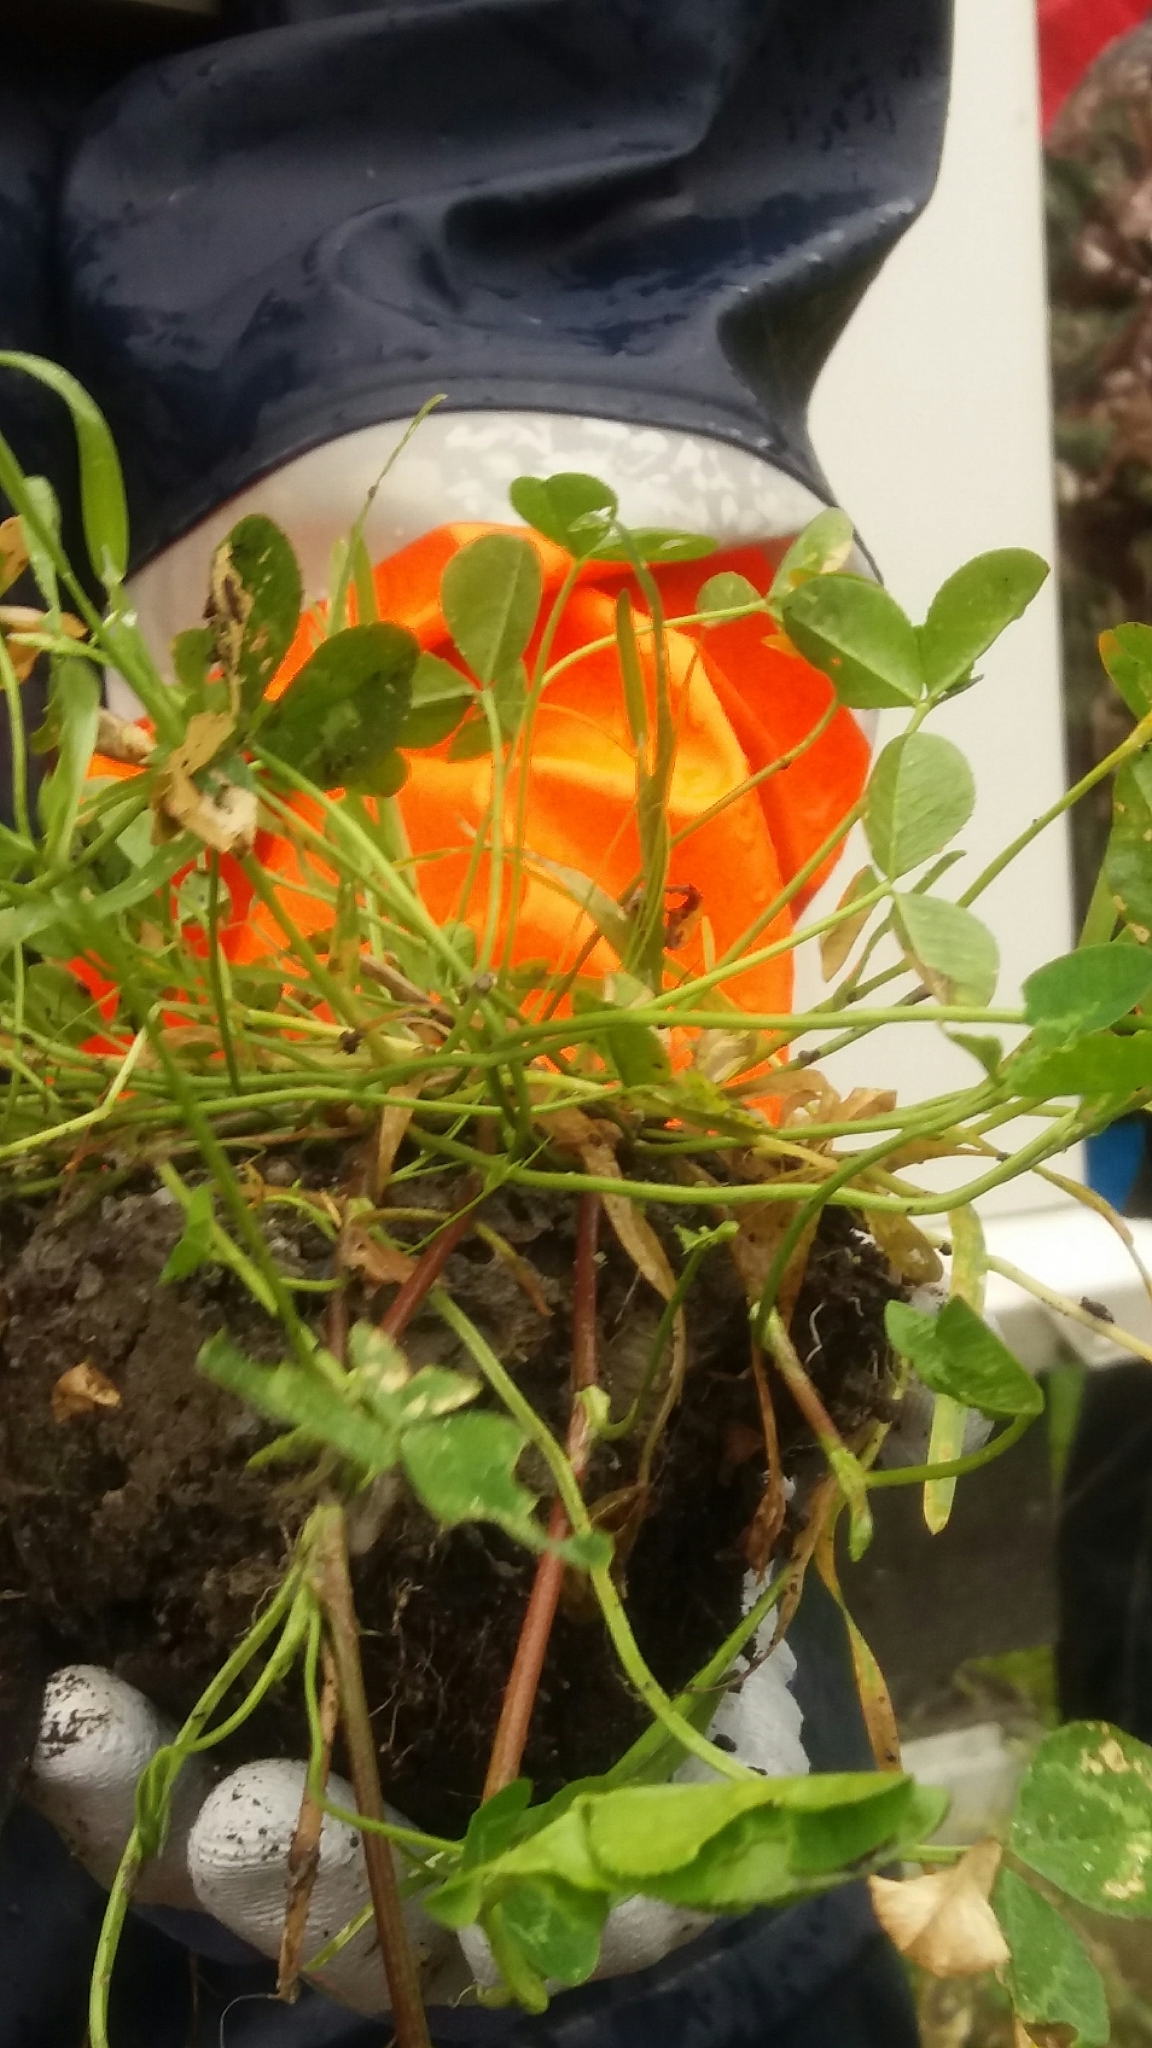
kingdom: Plantae
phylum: Tracheophyta
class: Magnoliopsida
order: Fabales
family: Fabaceae
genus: Trifolium
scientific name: Trifolium repens
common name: White clover
